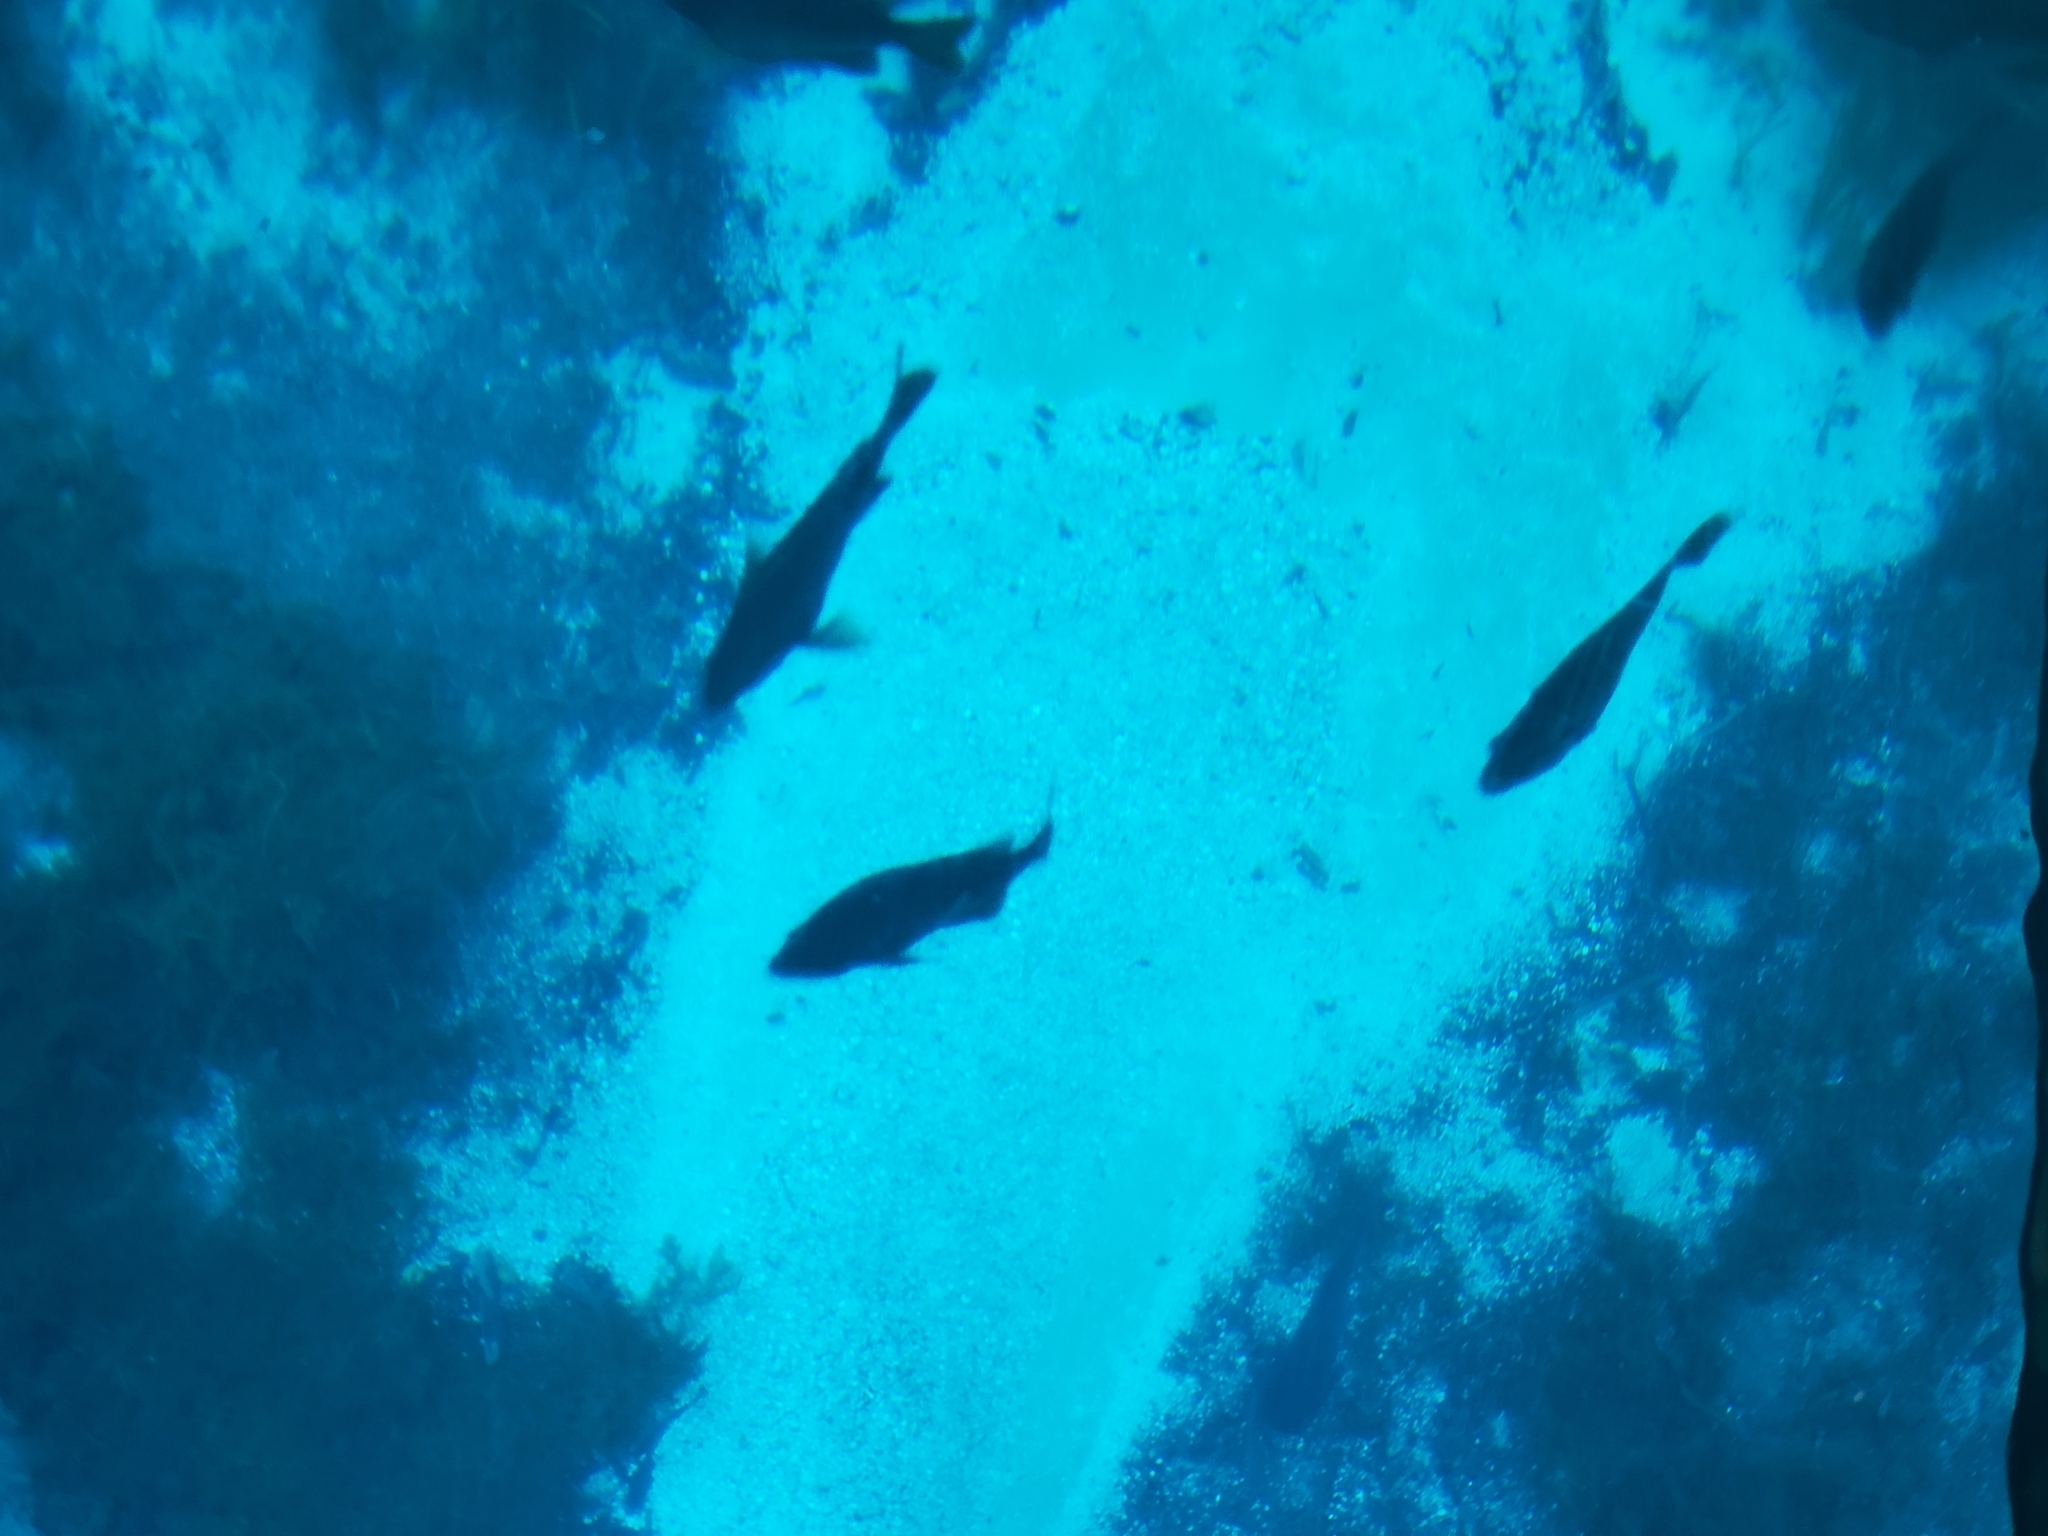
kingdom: Animalia
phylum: Chordata
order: Perciformes
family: Cichlidae
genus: Oreochromis
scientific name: Oreochromis aureus
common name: Blue tilapia
